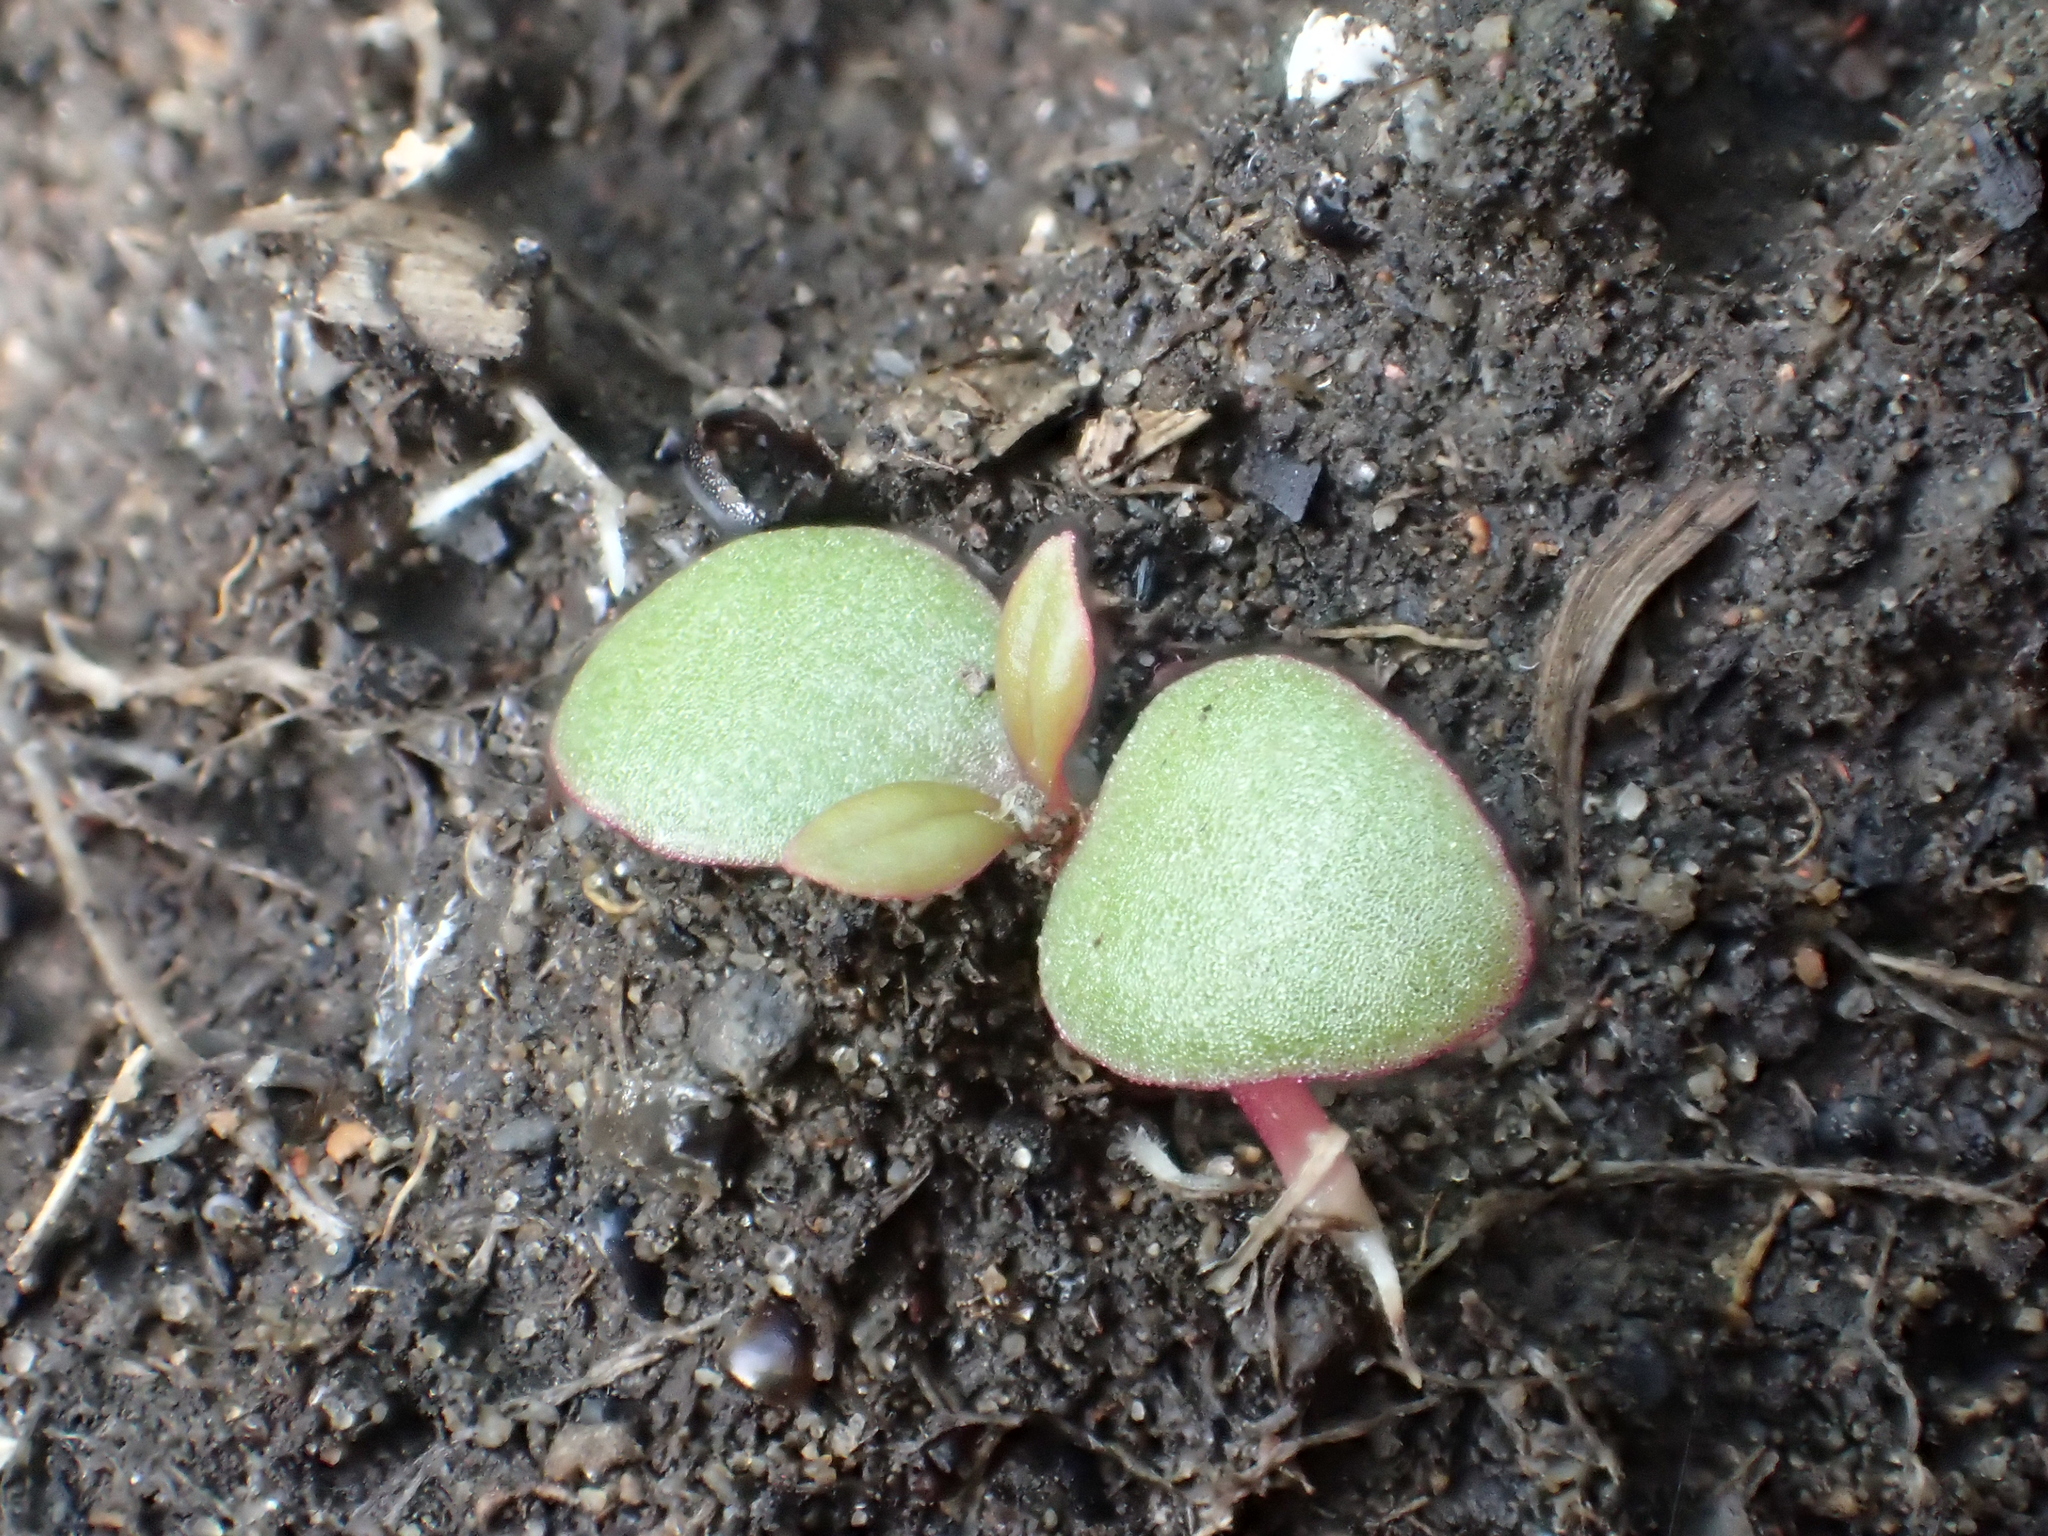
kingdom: Plantae
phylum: Tracheophyta
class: Magnoliopsida
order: Caryophyllales
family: Talinaceae
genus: Talinum
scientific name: Talinum paniculatum
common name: Jewels of opar
